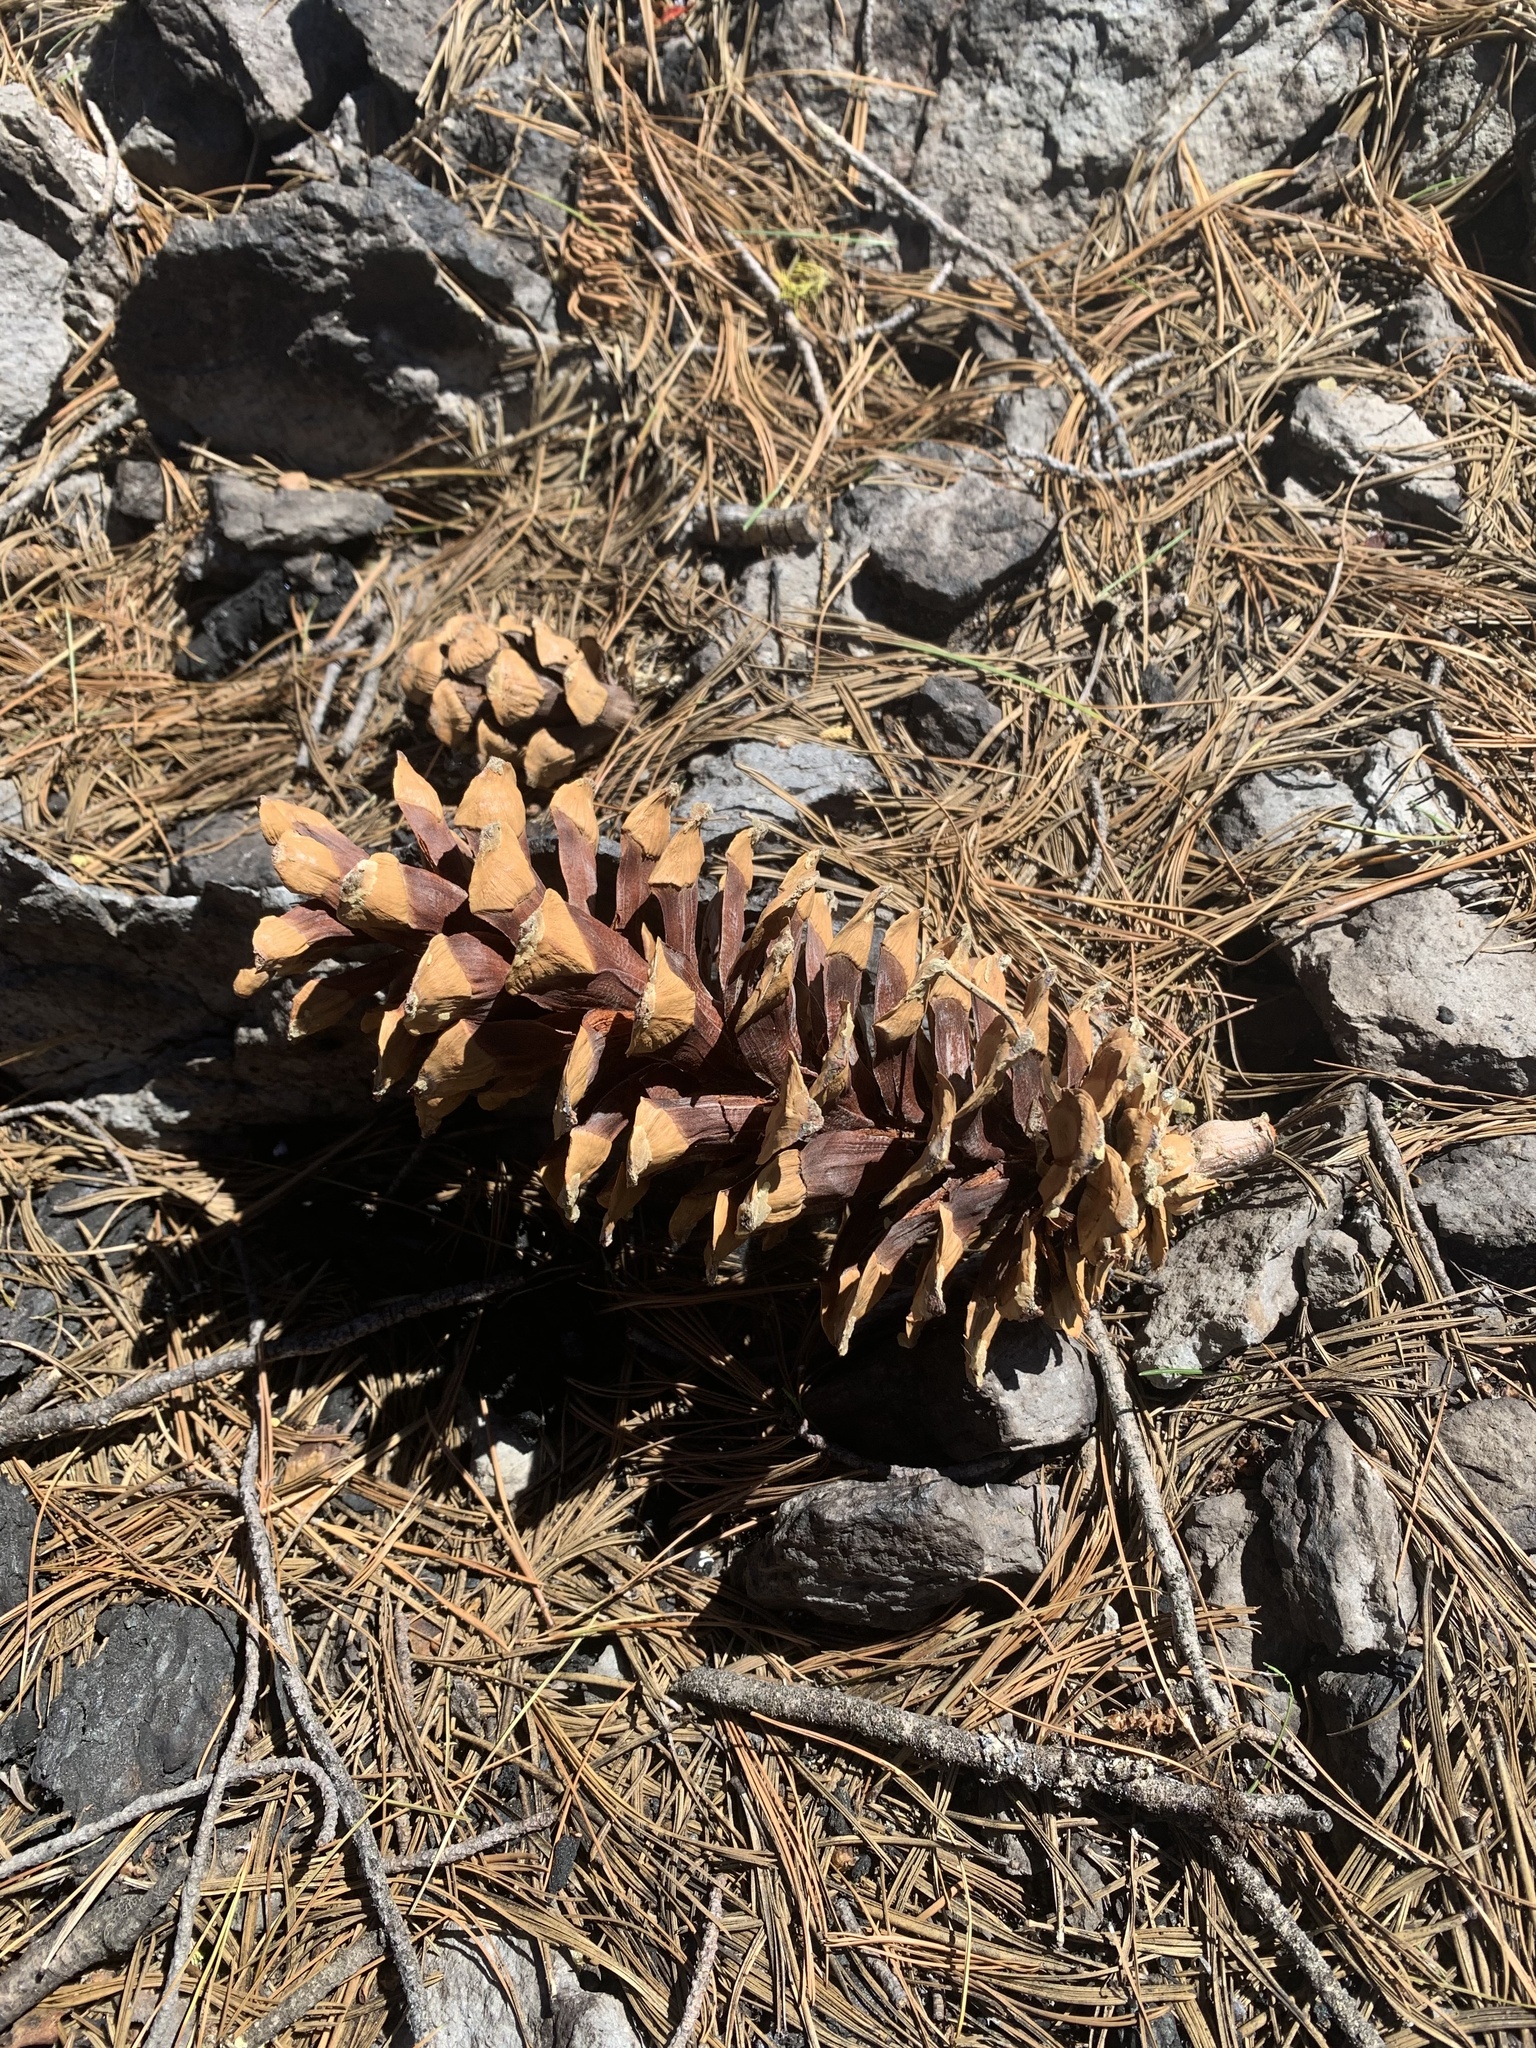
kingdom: Plantae
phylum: Tracheophyta
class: Pinopsida
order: Pinales
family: Pinaceae
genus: Pinus
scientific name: Pinus monticola
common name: Western white pine
